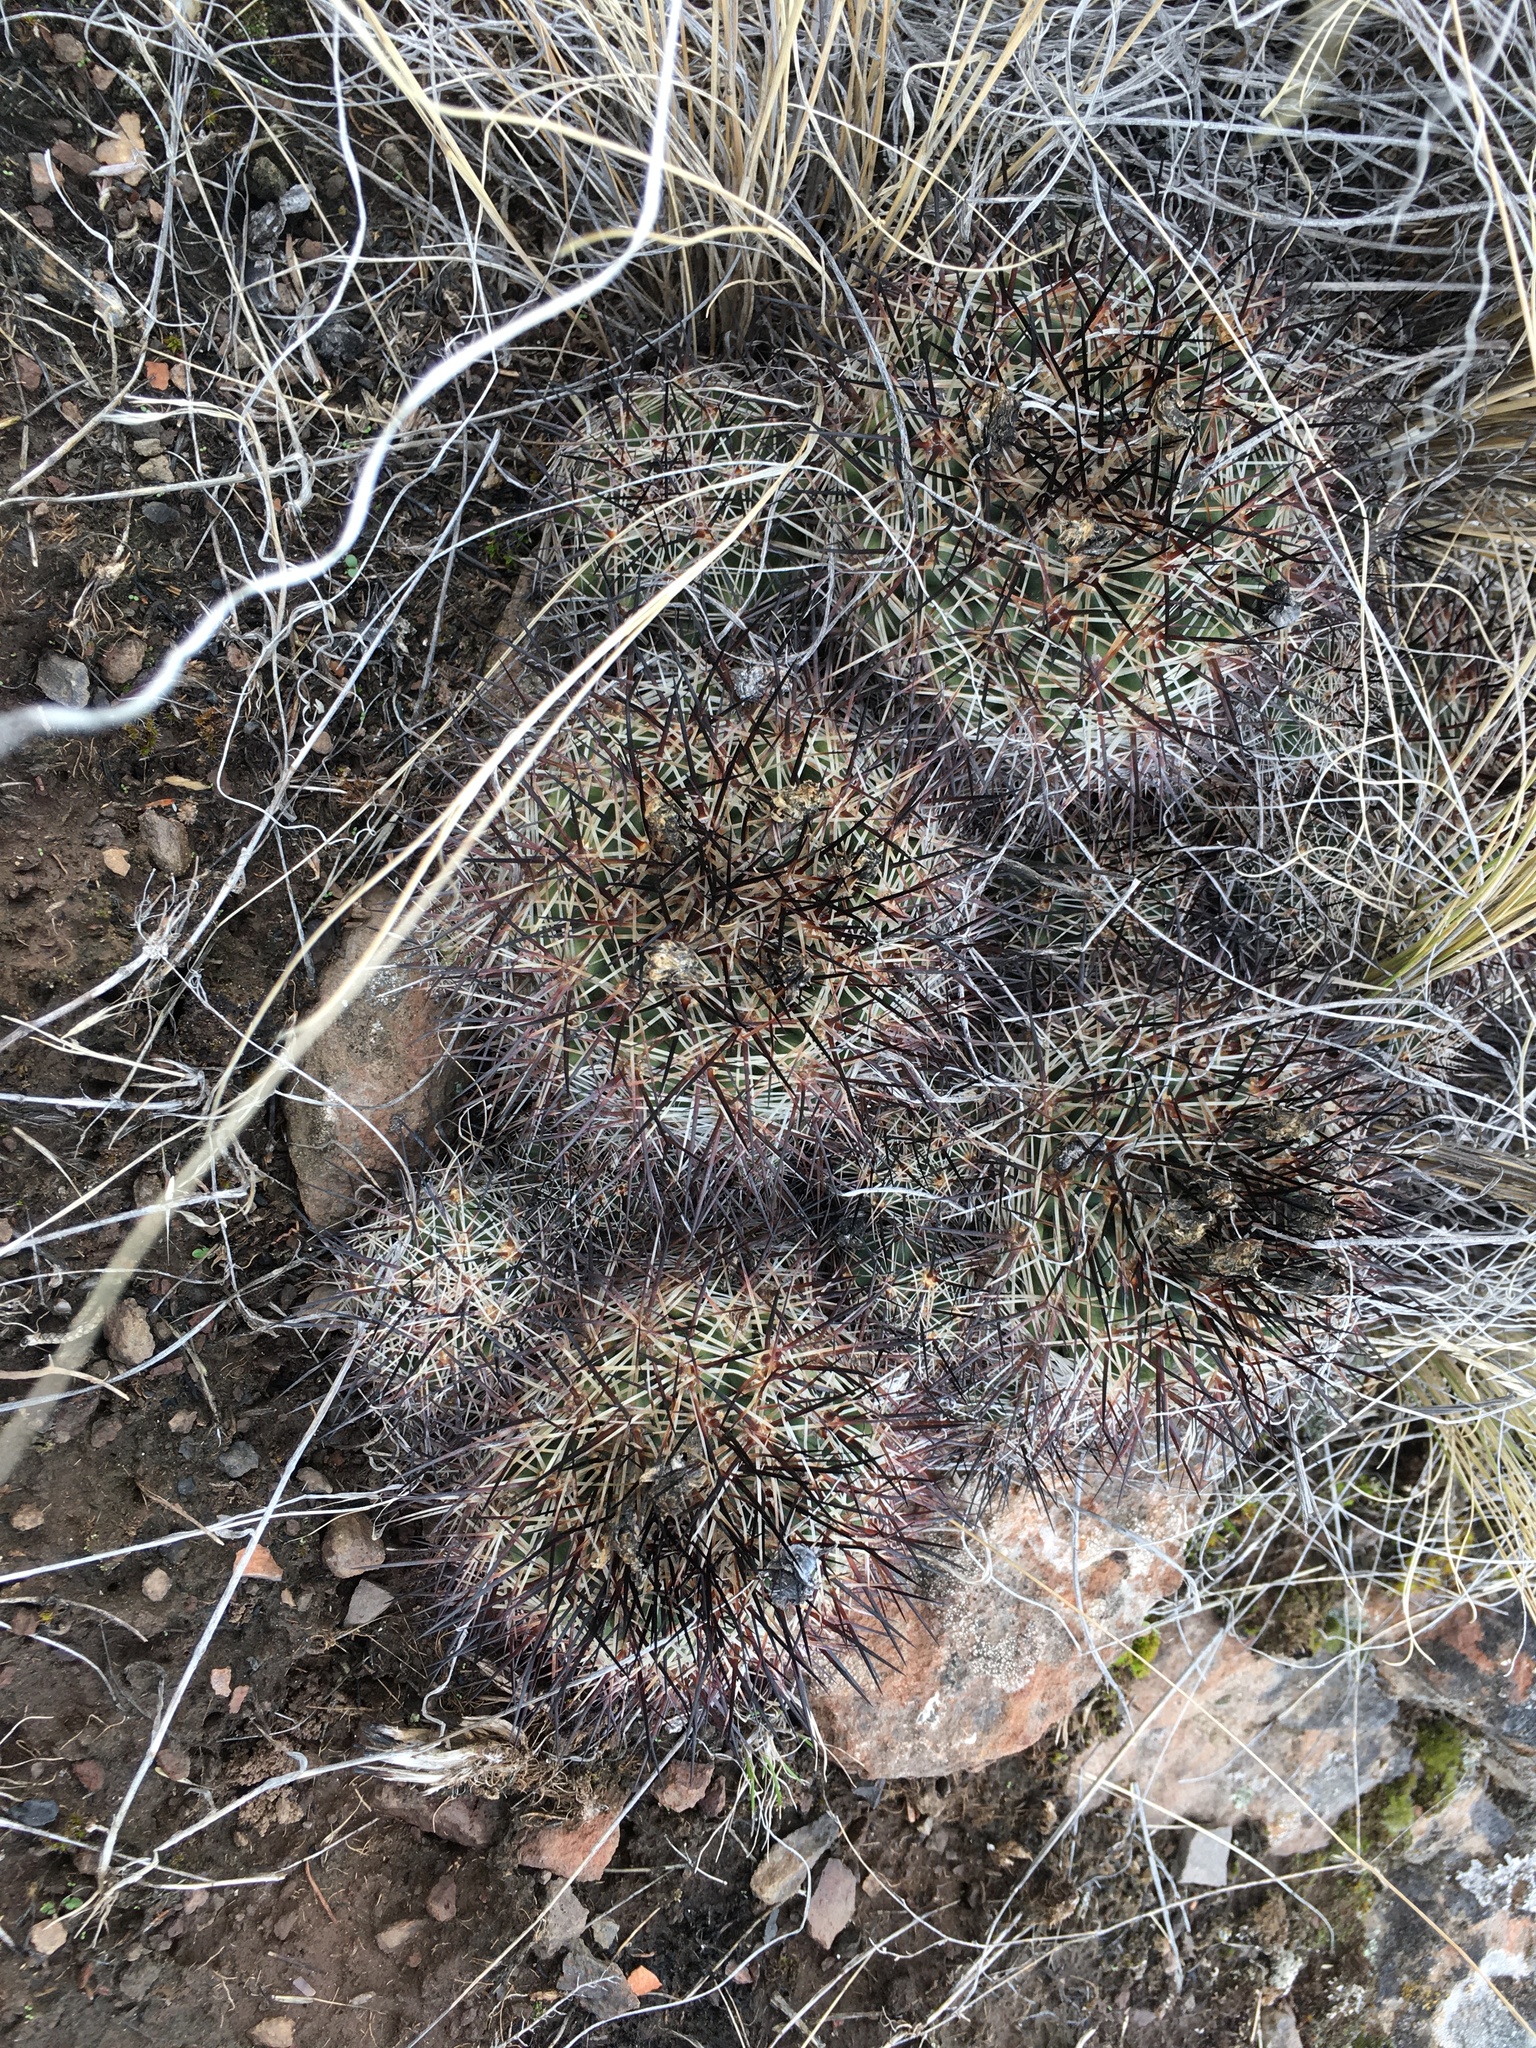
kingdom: Plantae
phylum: Tracheophyta
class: Magnoliopsida
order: Caryophyllales
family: Cactaceae
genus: Pediocactus
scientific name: Pediocactus nigrispinus
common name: Simpson's hedgehog cactus
